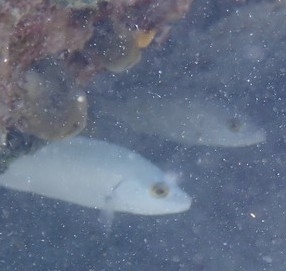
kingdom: Animalia
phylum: Chordata
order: Perciformes
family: Lutjanidae
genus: Lutjanus
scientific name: Lutjanus griseus
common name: Gray snapper
